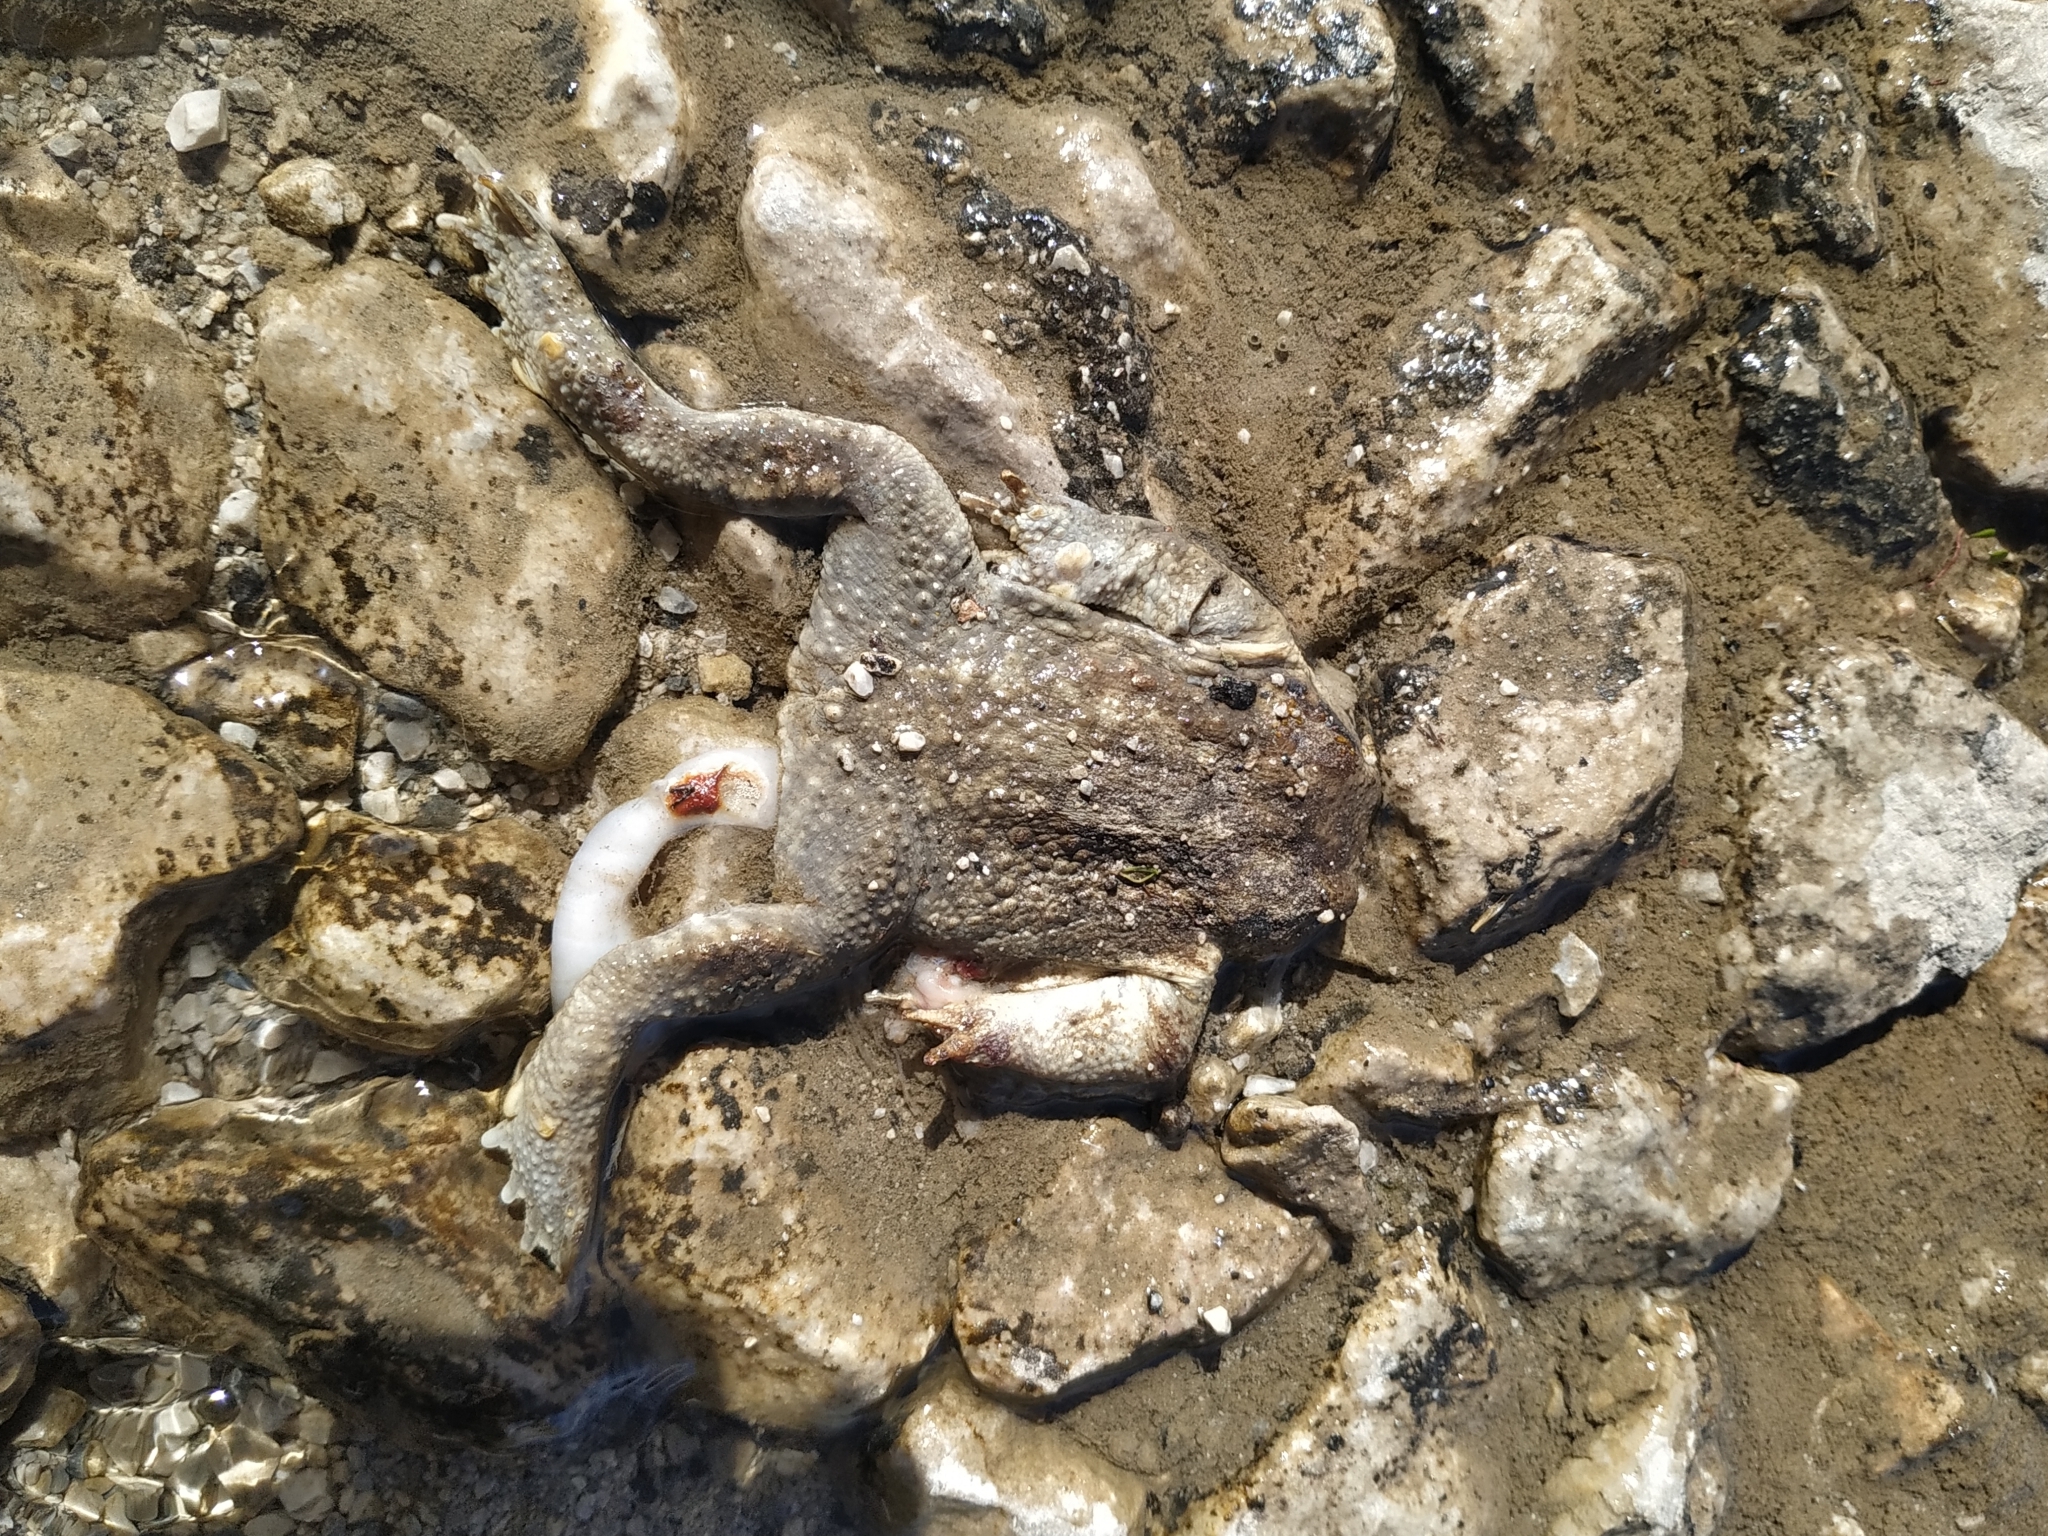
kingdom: Animalia
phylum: Chordata
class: Amphibia
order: Anura
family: Bufonidae
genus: Bufo
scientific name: Bufo spinosus
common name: Western common toad
